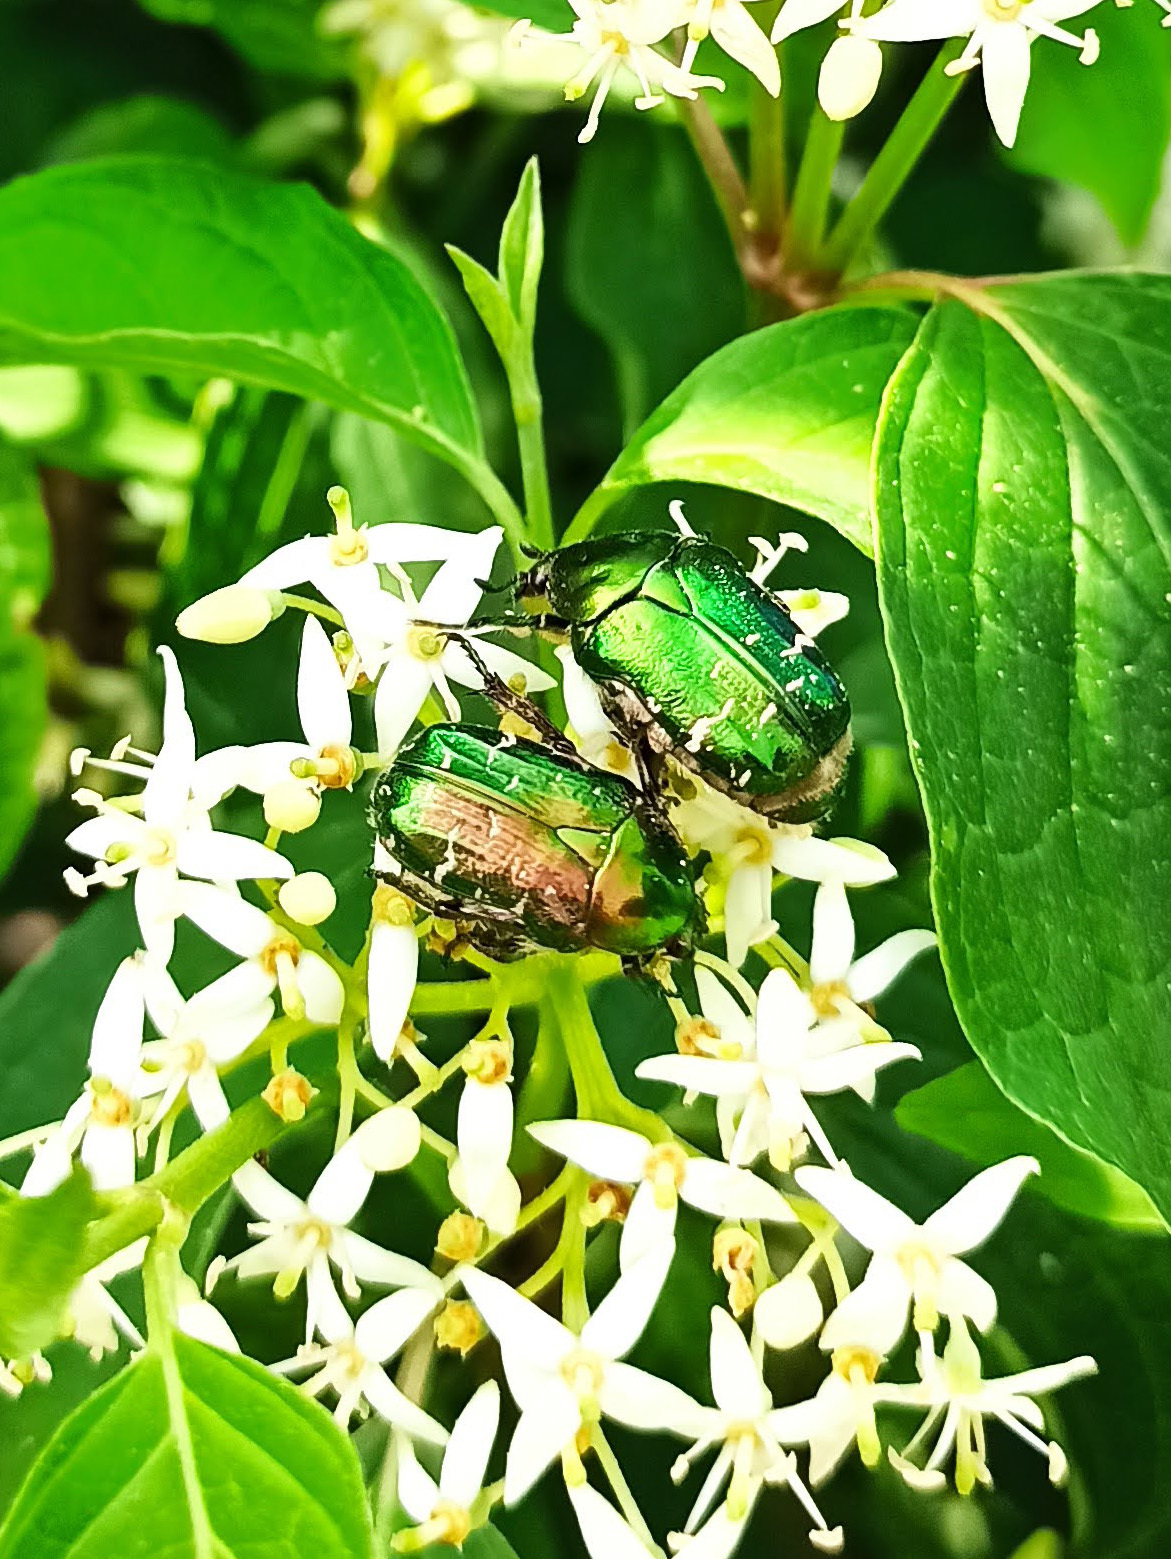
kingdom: Animalia
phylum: Arthropoda
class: Insecta
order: Coleoptera
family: Scarabaeidae
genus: Cetonia
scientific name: Cetonia aurata
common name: Rose chafer
